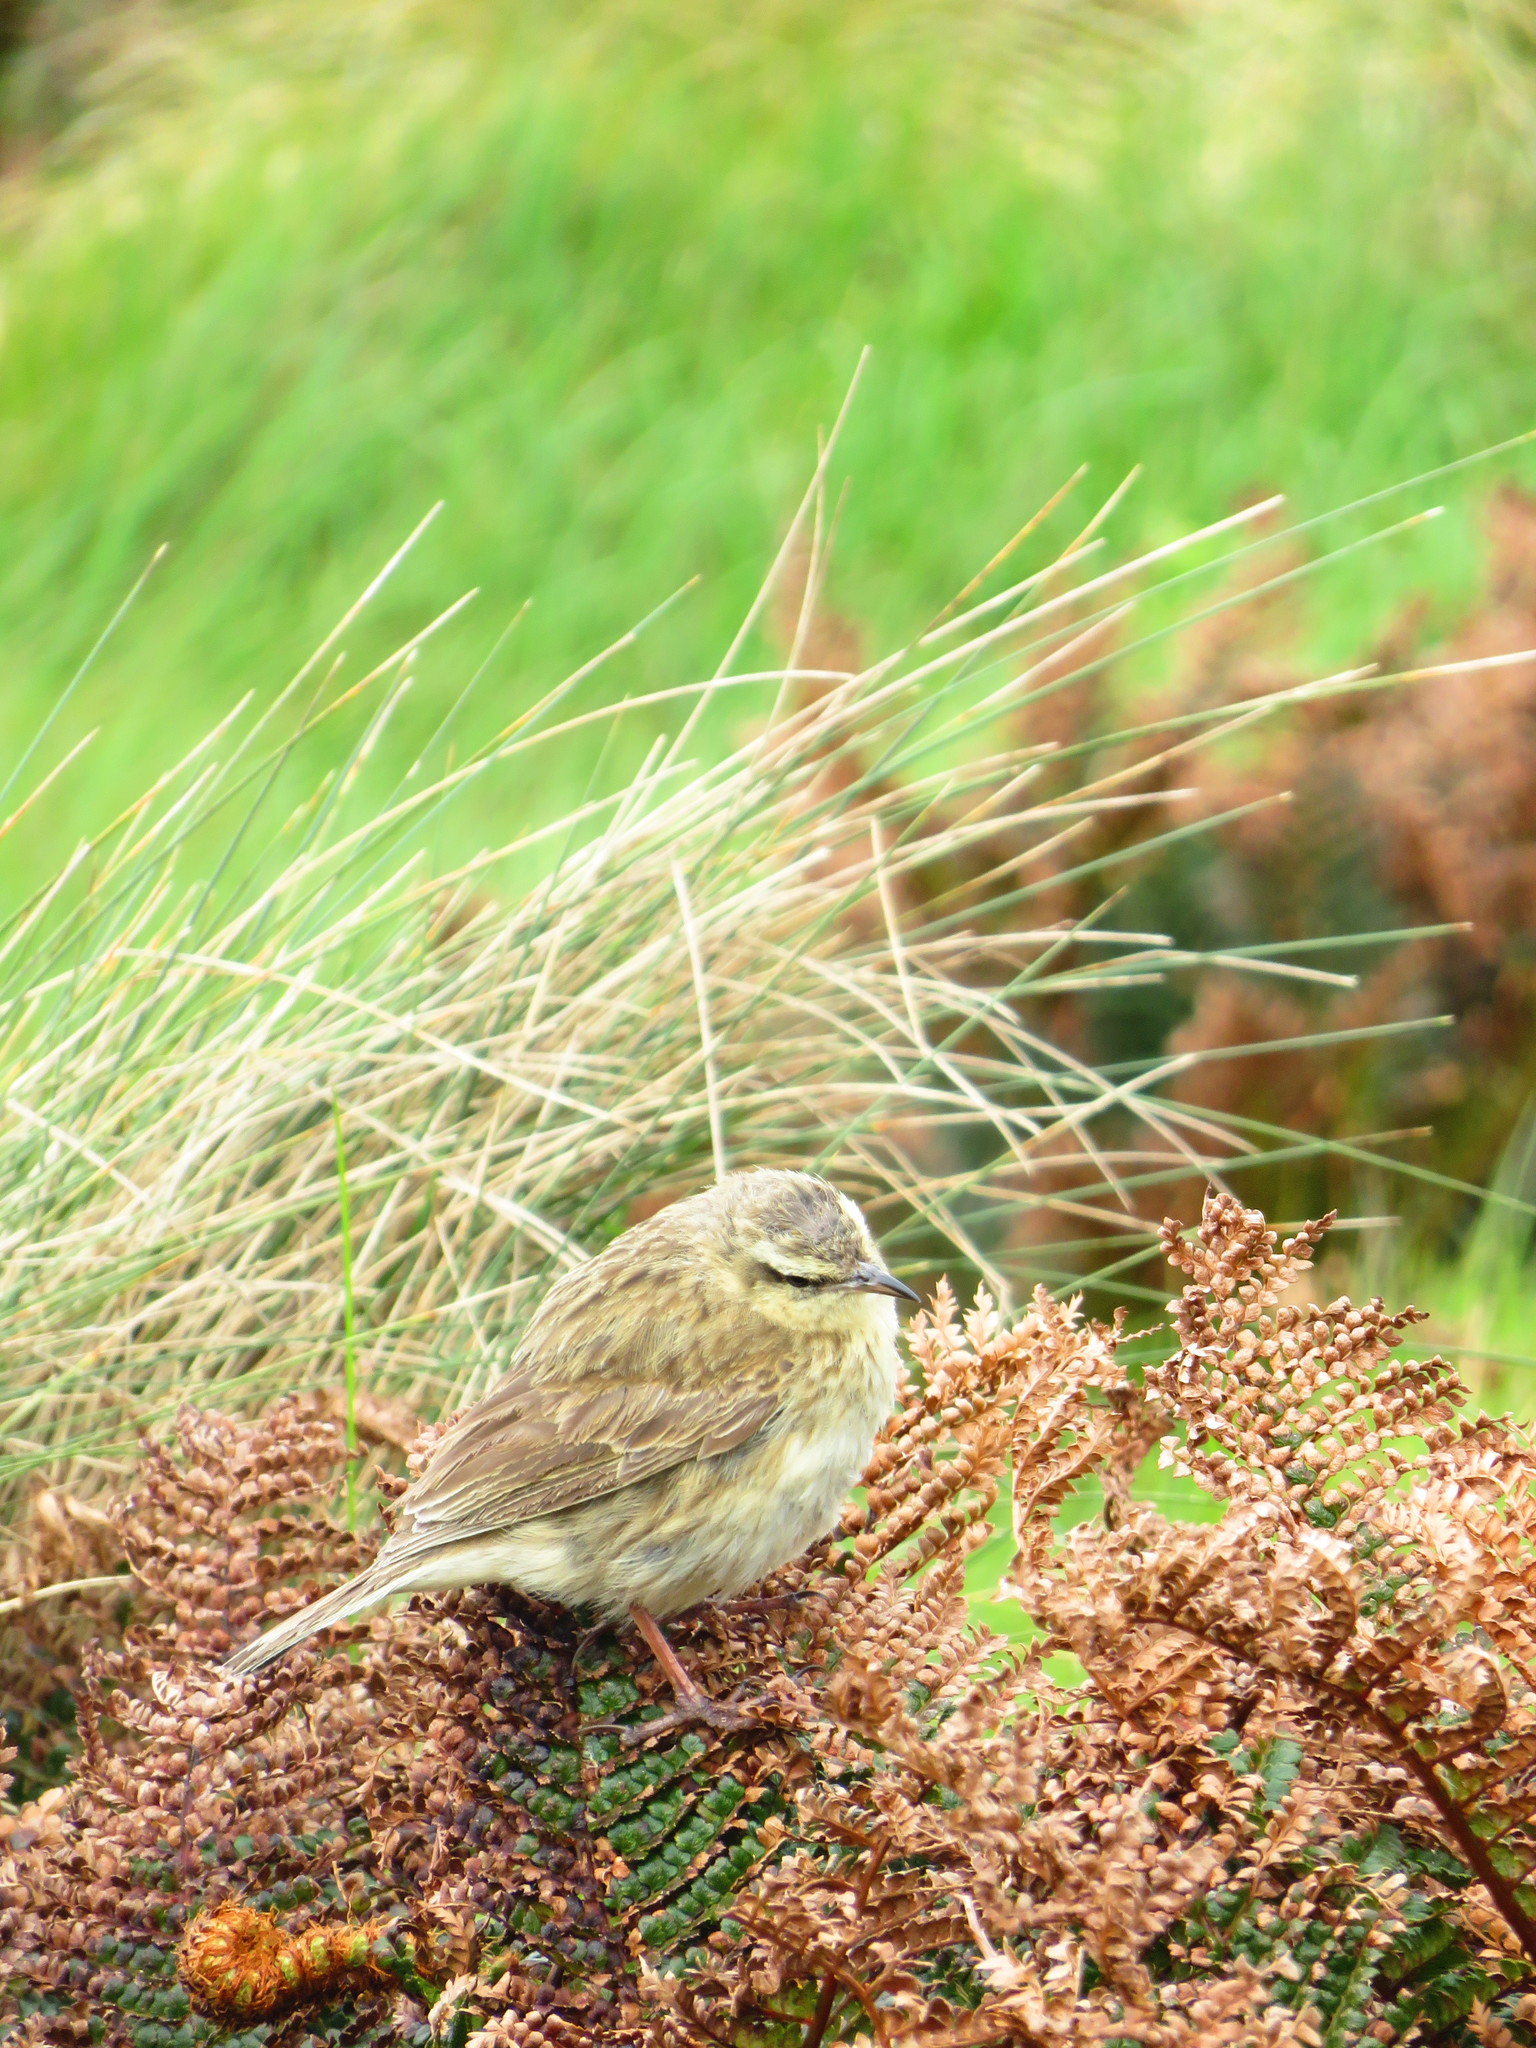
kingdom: Animalia
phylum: Chordata
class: Aves
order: Passeriformes
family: Motacillidae
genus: Anthus
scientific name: Anthus novaeseelandiae
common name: New zealand pipit
